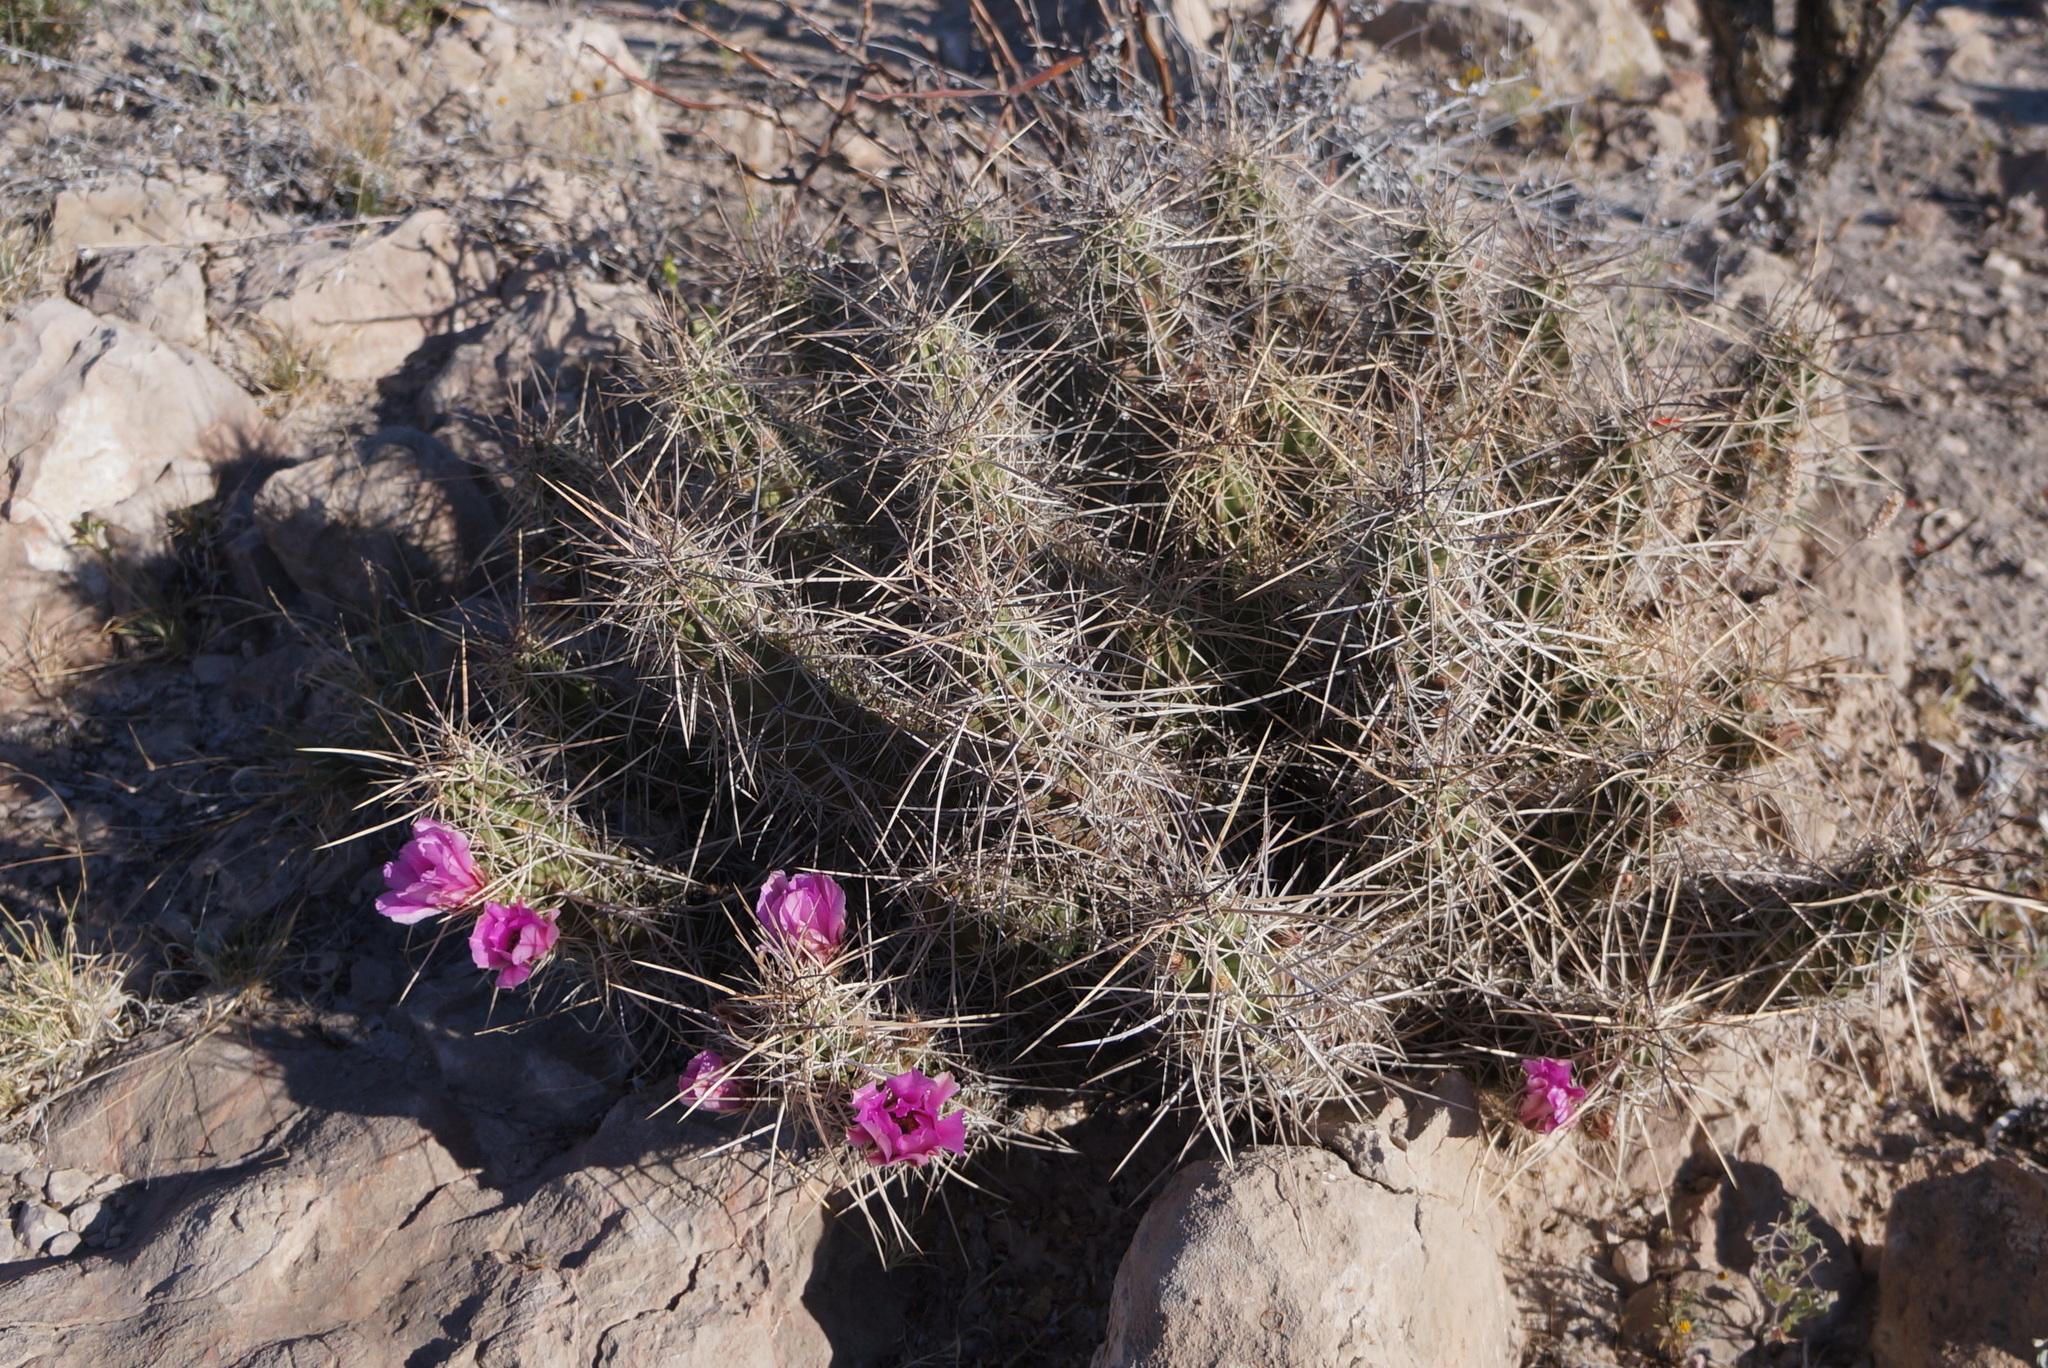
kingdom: Plantae
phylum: Tracheophyta
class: Magnoliopsida
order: Caryophyllales
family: Cactaceae
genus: Echinocereus
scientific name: Echinocereus enneacanthus
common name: Pitaya
